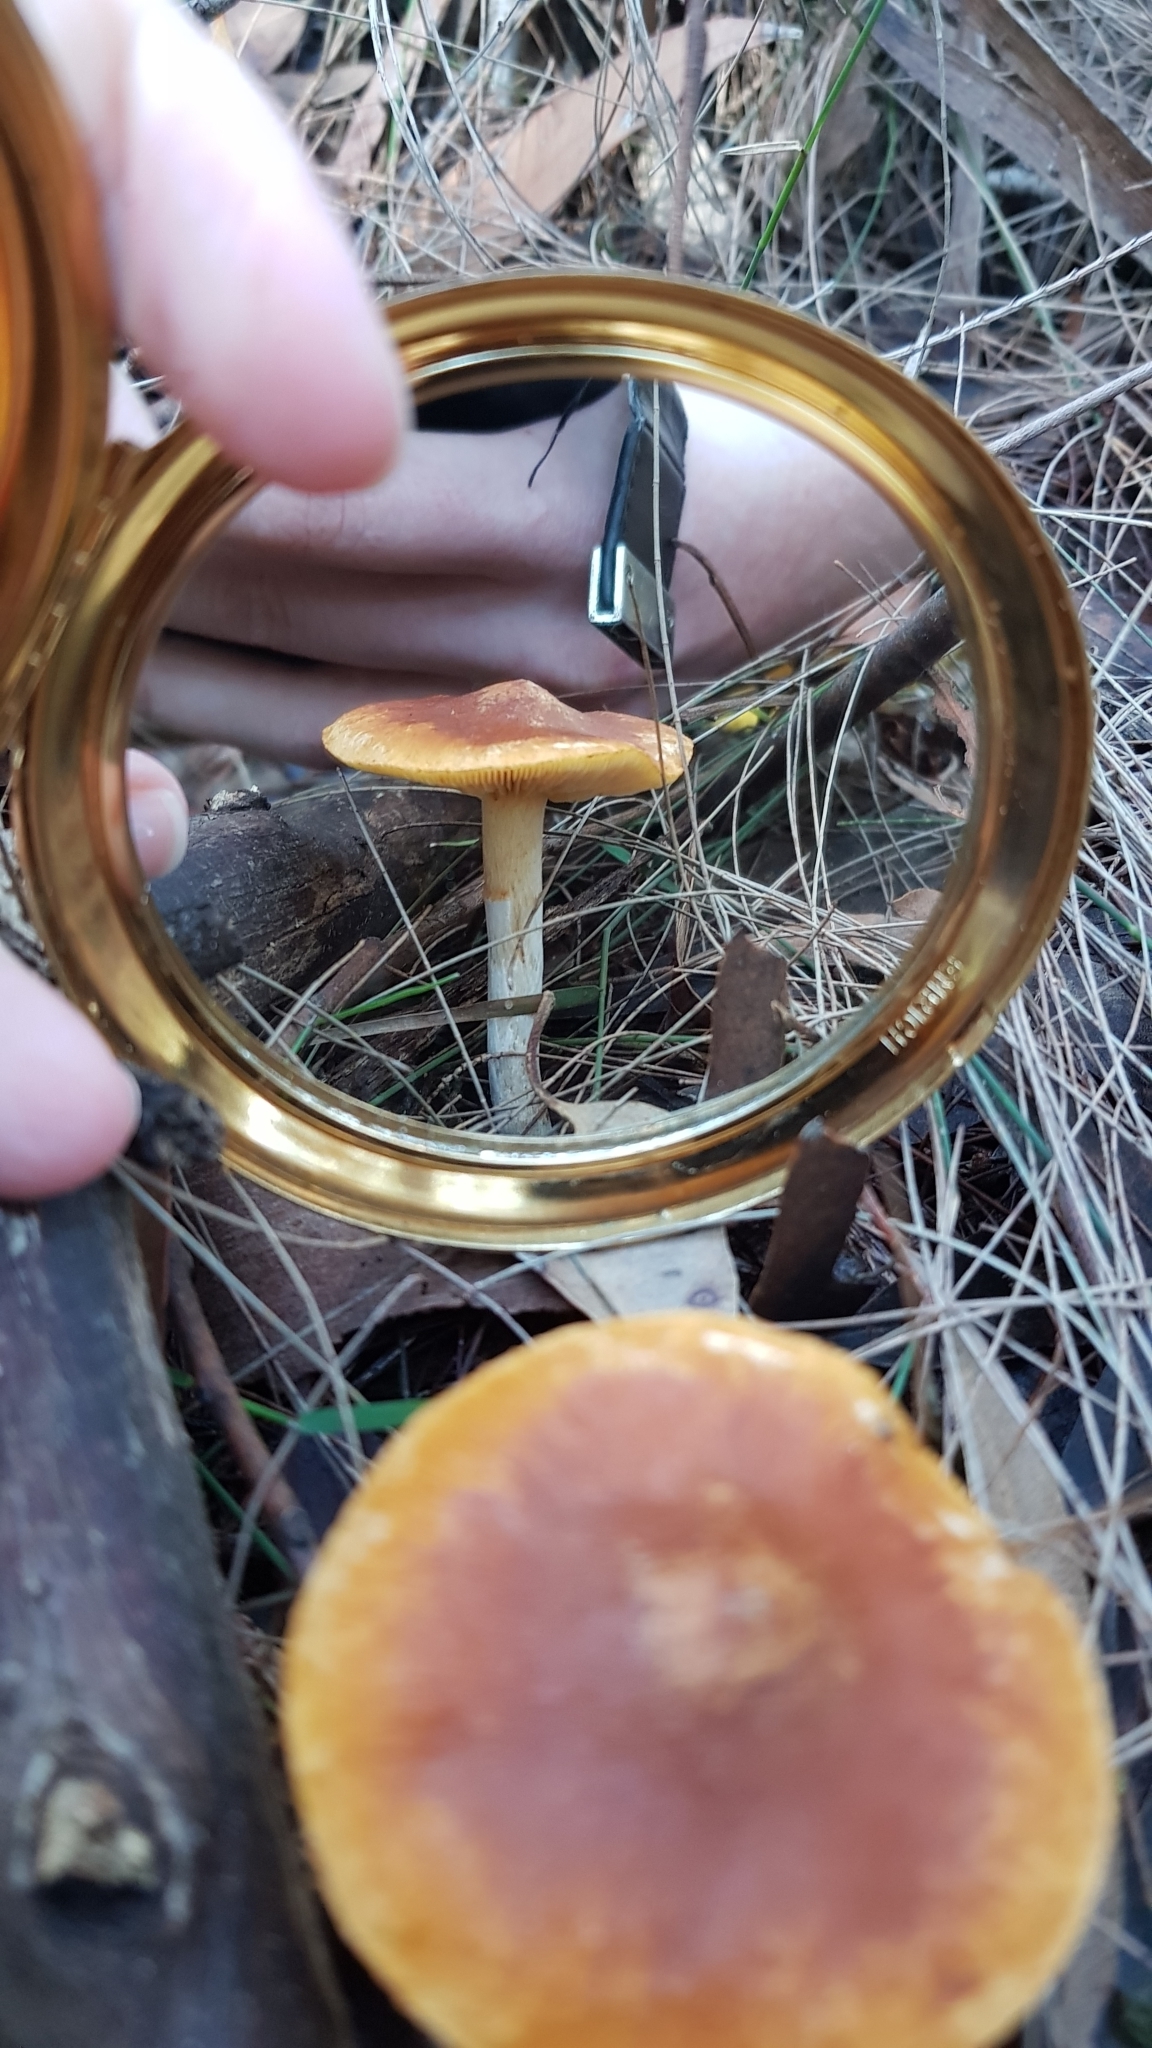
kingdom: Fungi
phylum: Basidiomycota
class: Agaricomycetes
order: Agaricales
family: Hymenogastraceae
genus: Gymnopilus
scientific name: Gymnopilus allantopus
